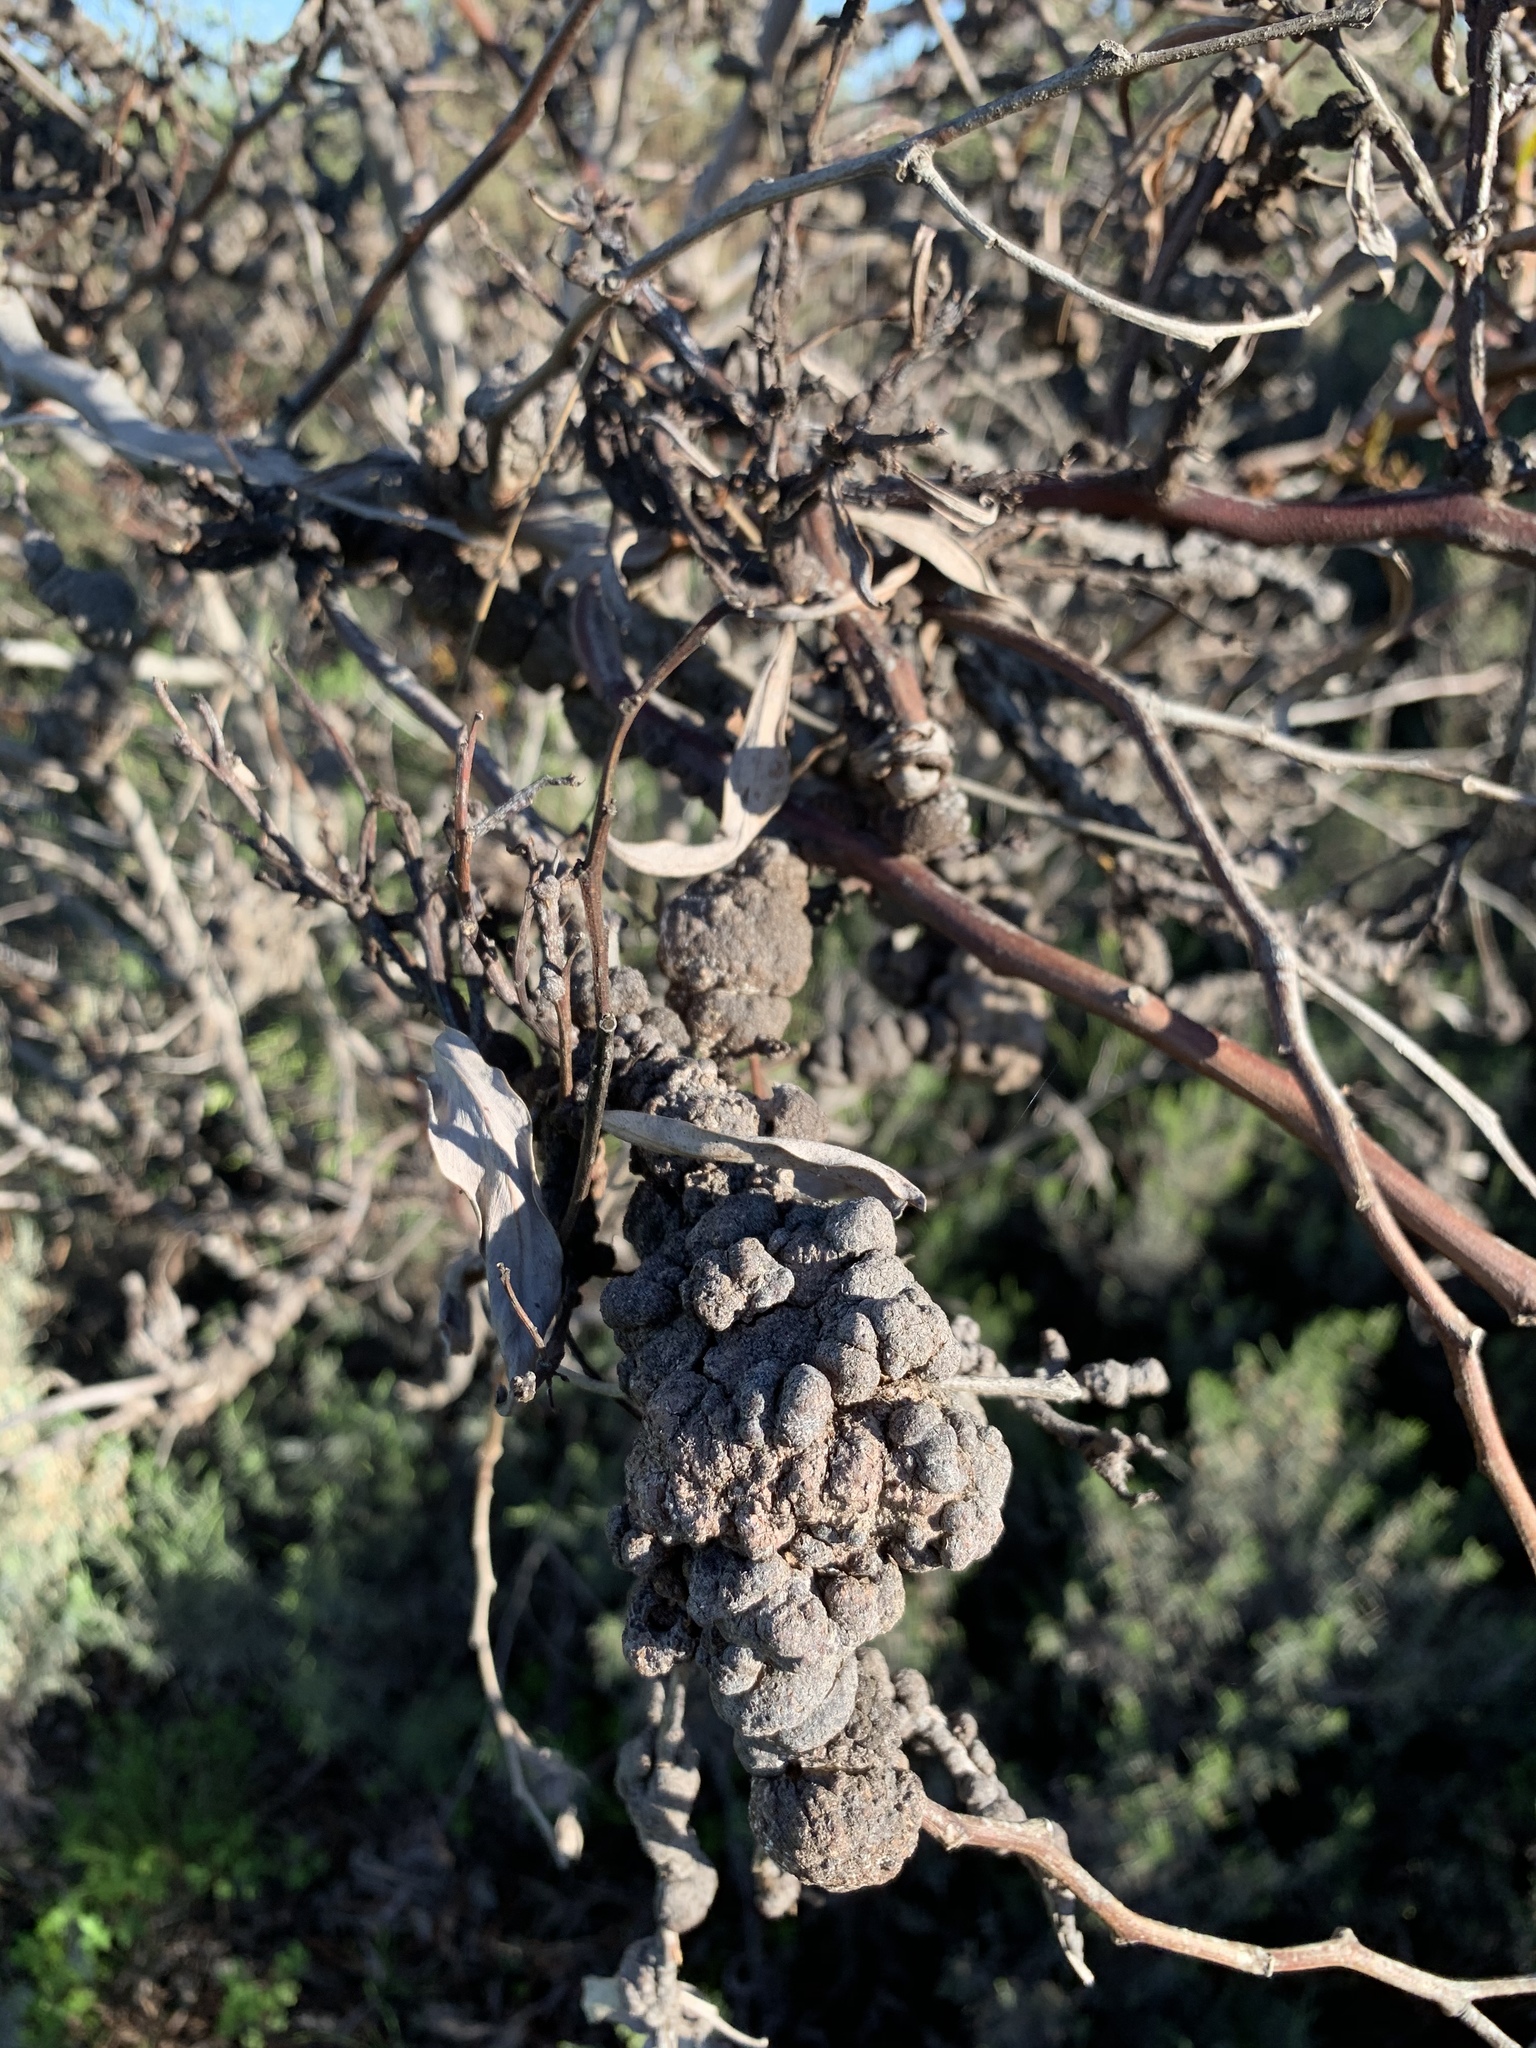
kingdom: Fungi
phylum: Basidiomycota
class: Pucciniomycetes
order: Pucciniales
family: Uromycladiaceae
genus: Uromycladium
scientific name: Uromycladium morrisii
